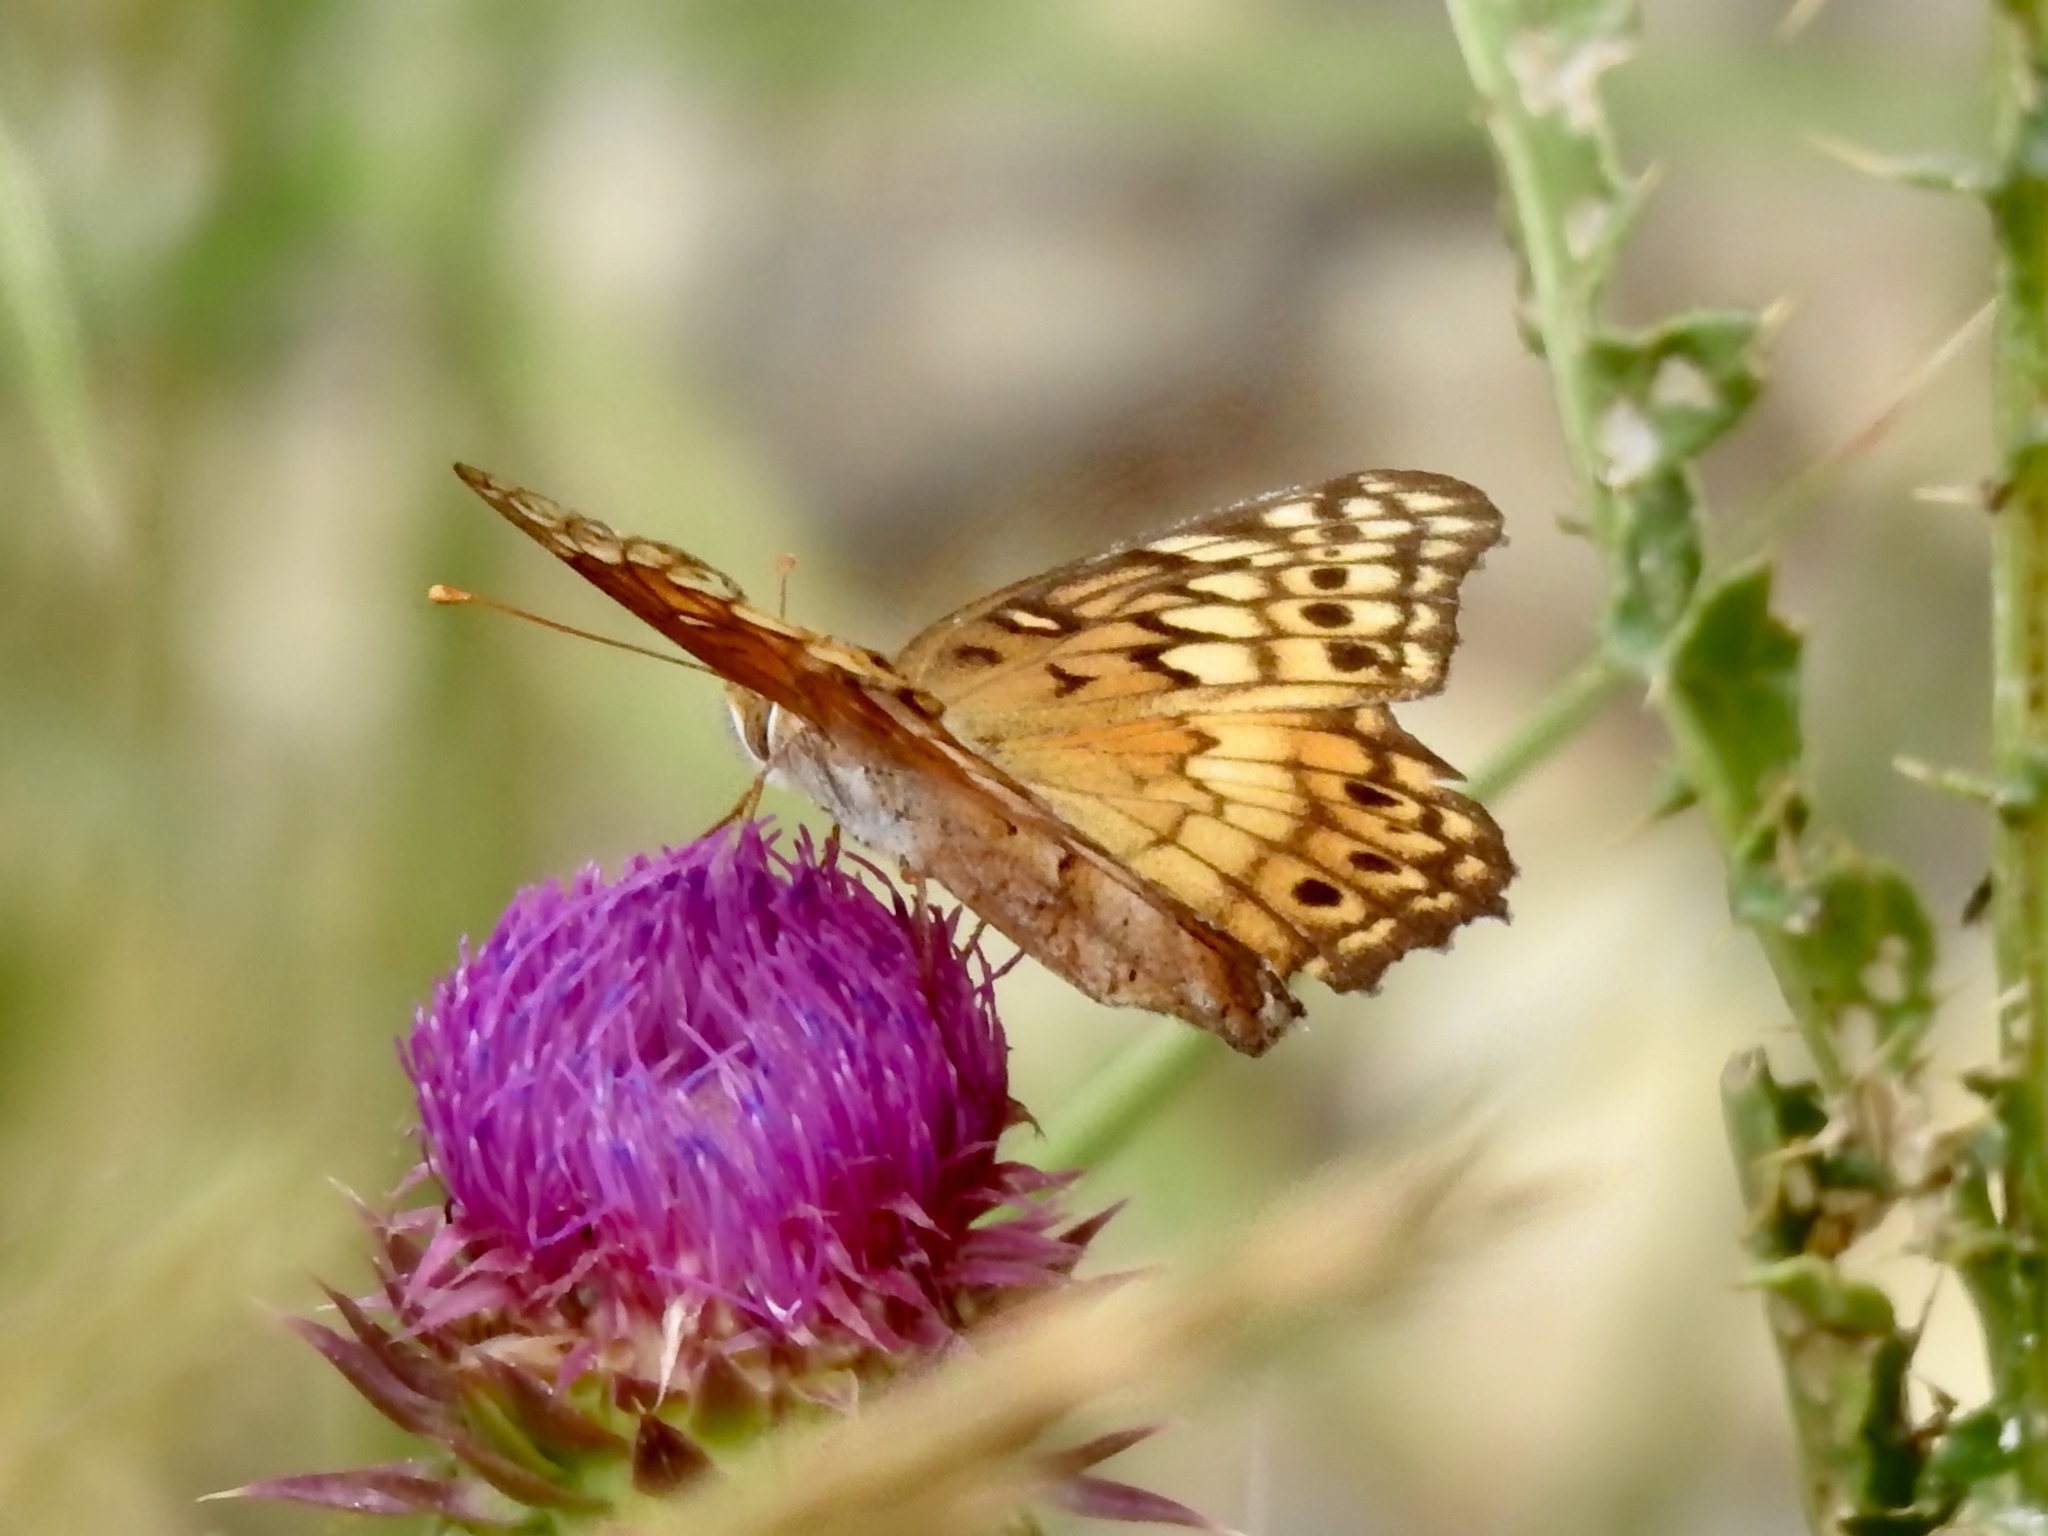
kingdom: Animalia
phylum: Arthropoda
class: Insecta
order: Lepidoptera
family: Nymphalidae
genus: Euptoieta
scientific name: Euptoieta claudia
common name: Variegated fritillary
